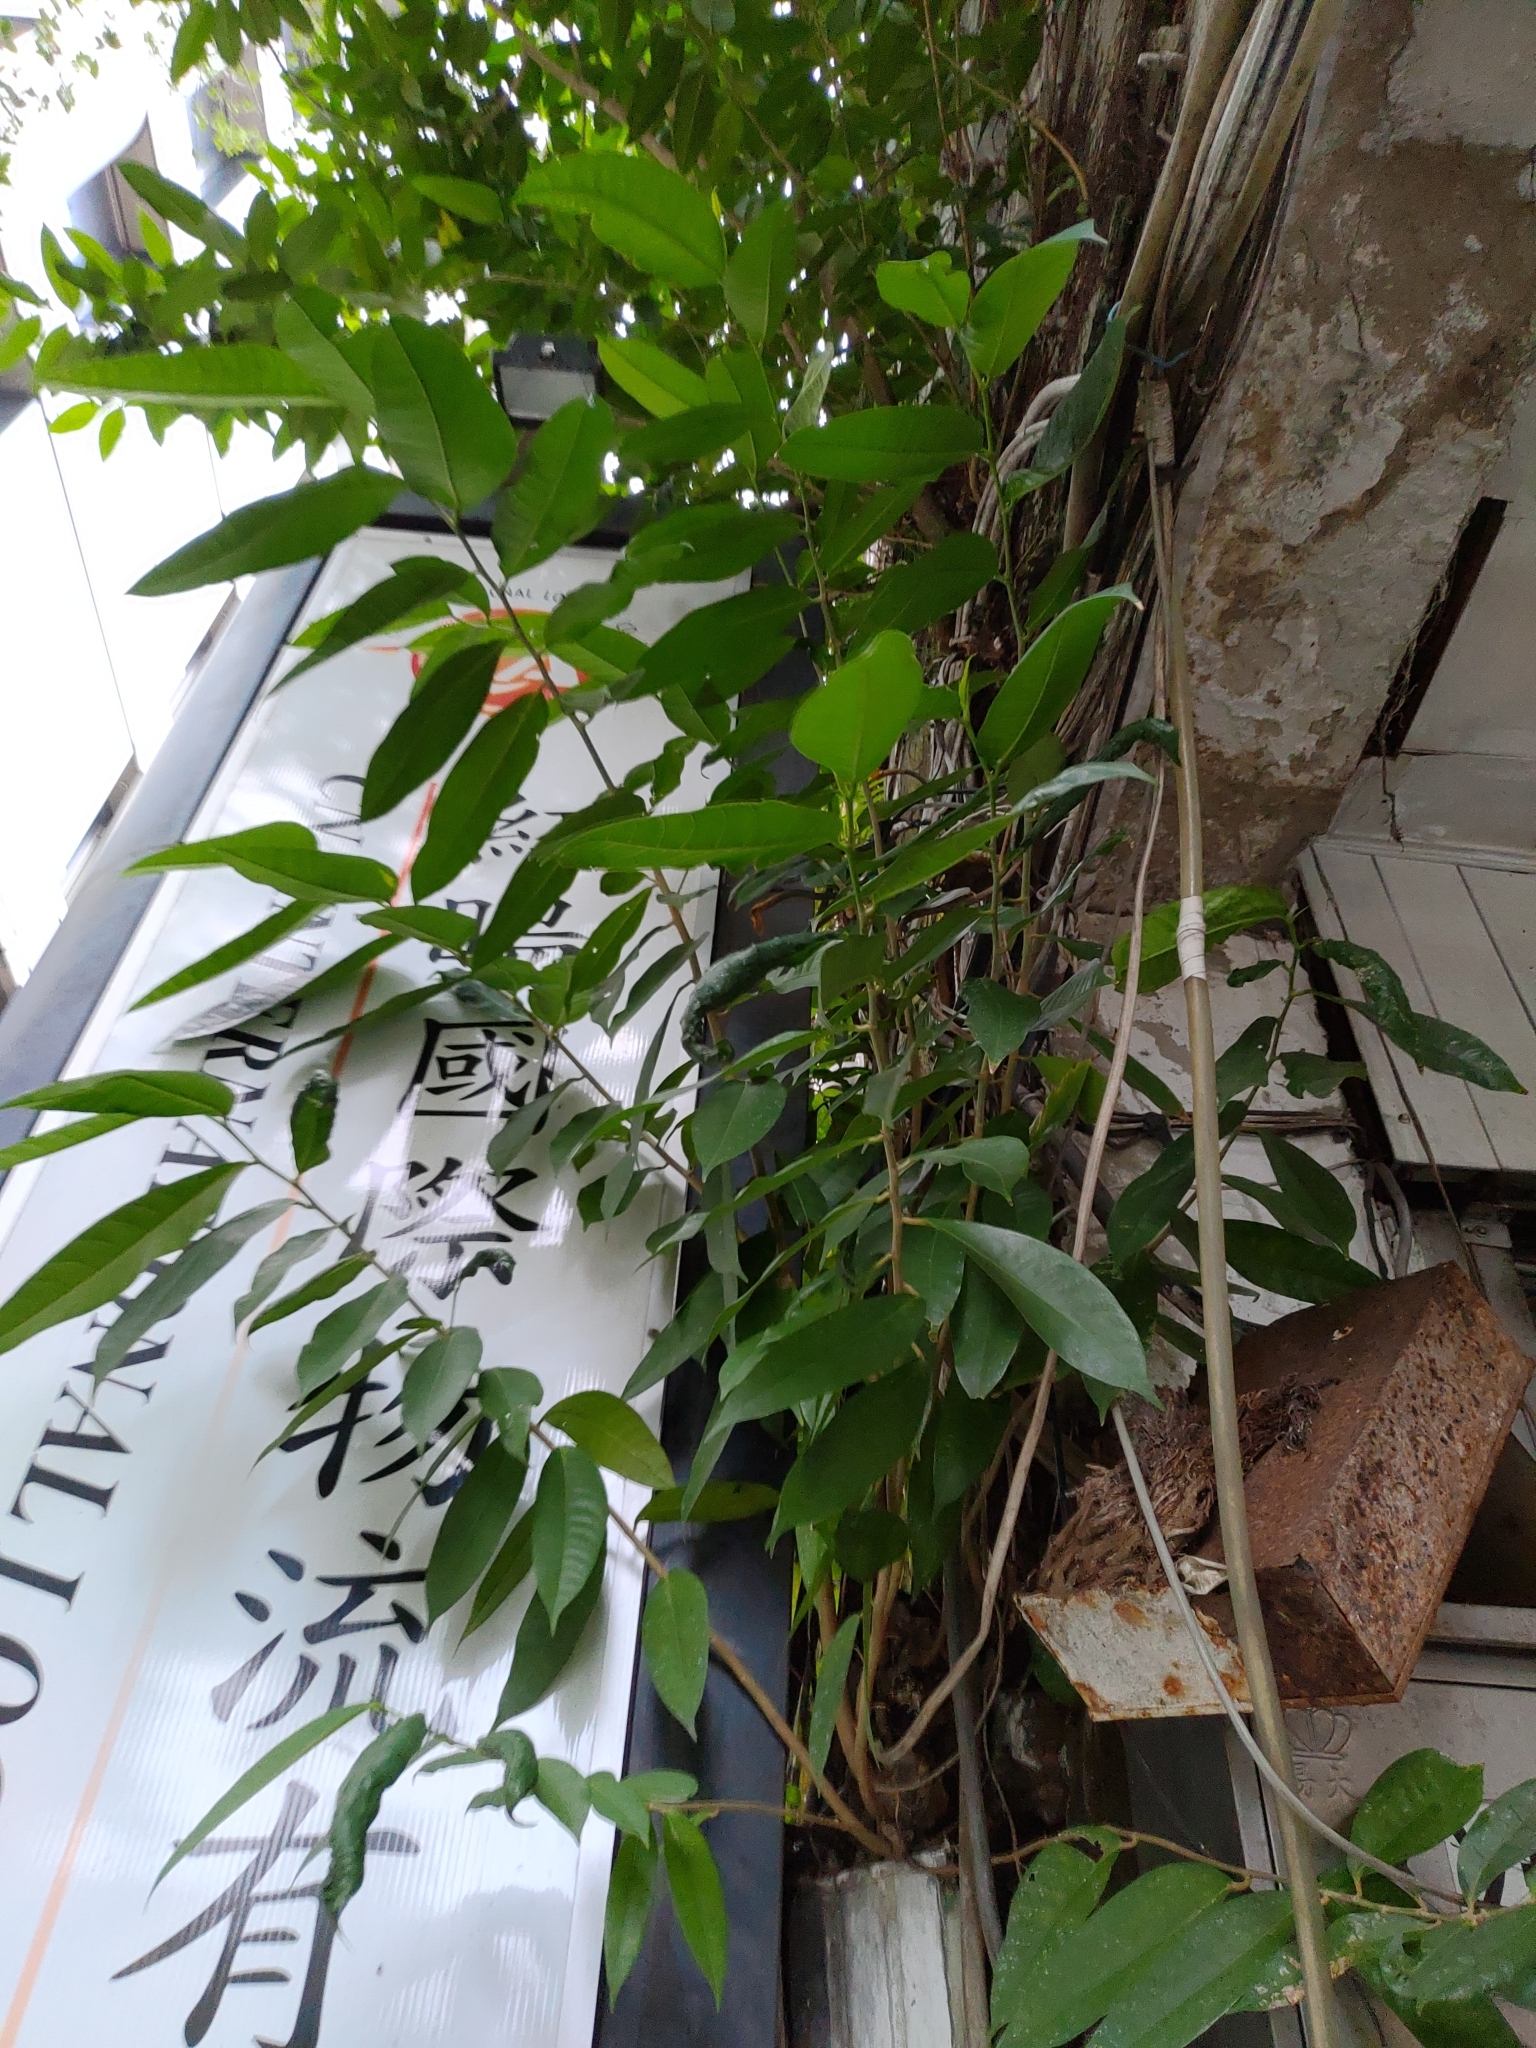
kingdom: Plantae
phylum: Tracheophyta
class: Magnoliopsida
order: Rosales
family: Moraceae
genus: Ficus
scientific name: Ficus virgata
